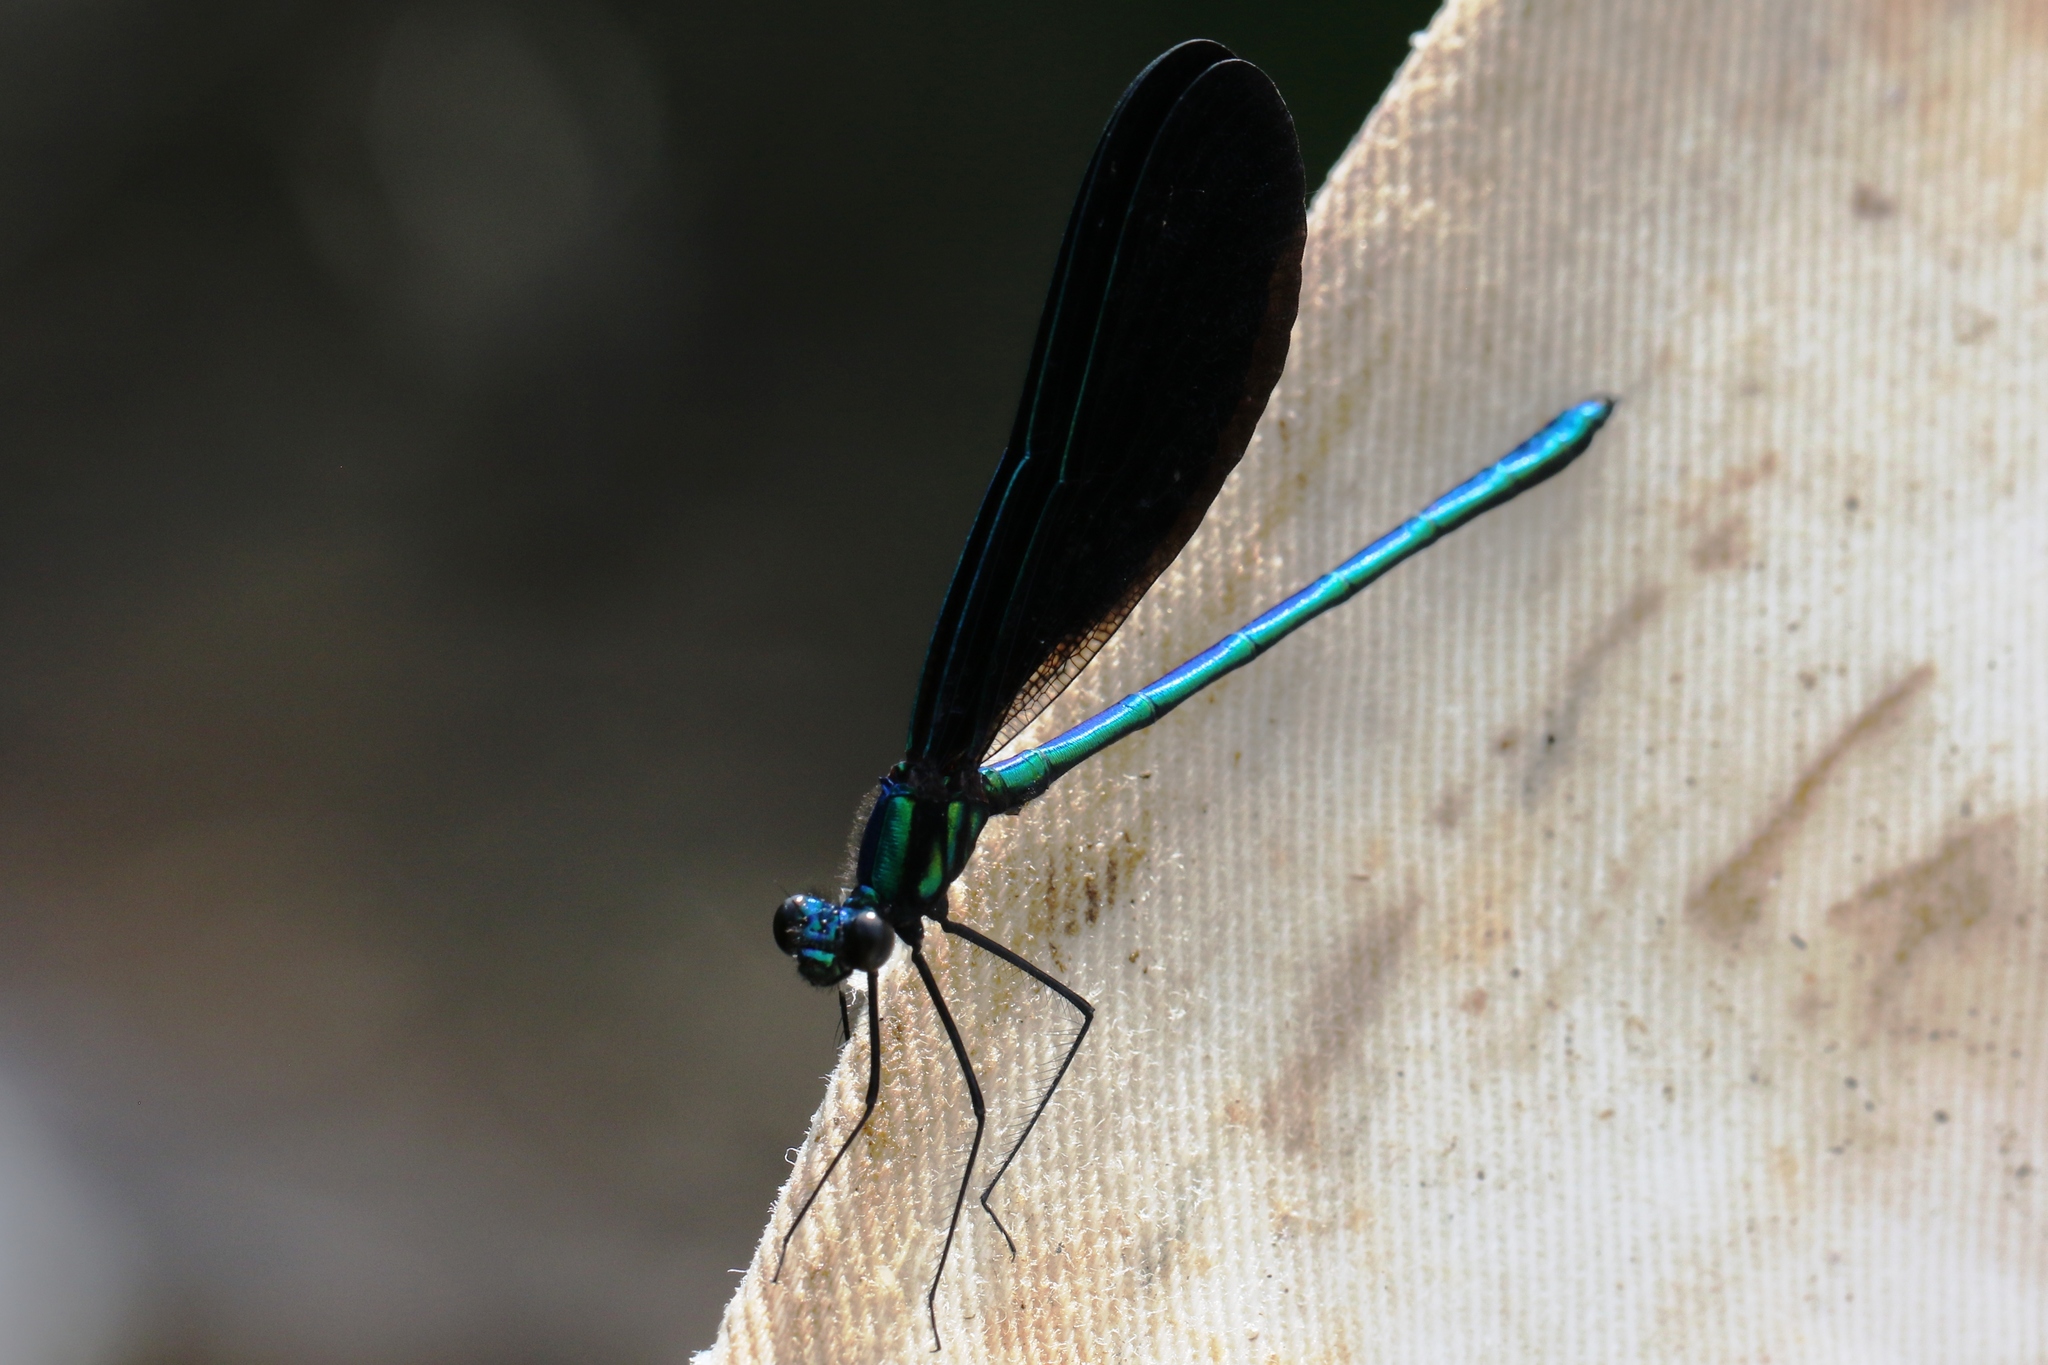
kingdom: Animalia
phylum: Arthropoda
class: Insecta
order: Odonata
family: Calopterygidae
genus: Calopteryx
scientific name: Calopteryx maculata
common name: Ebony jewelwing
